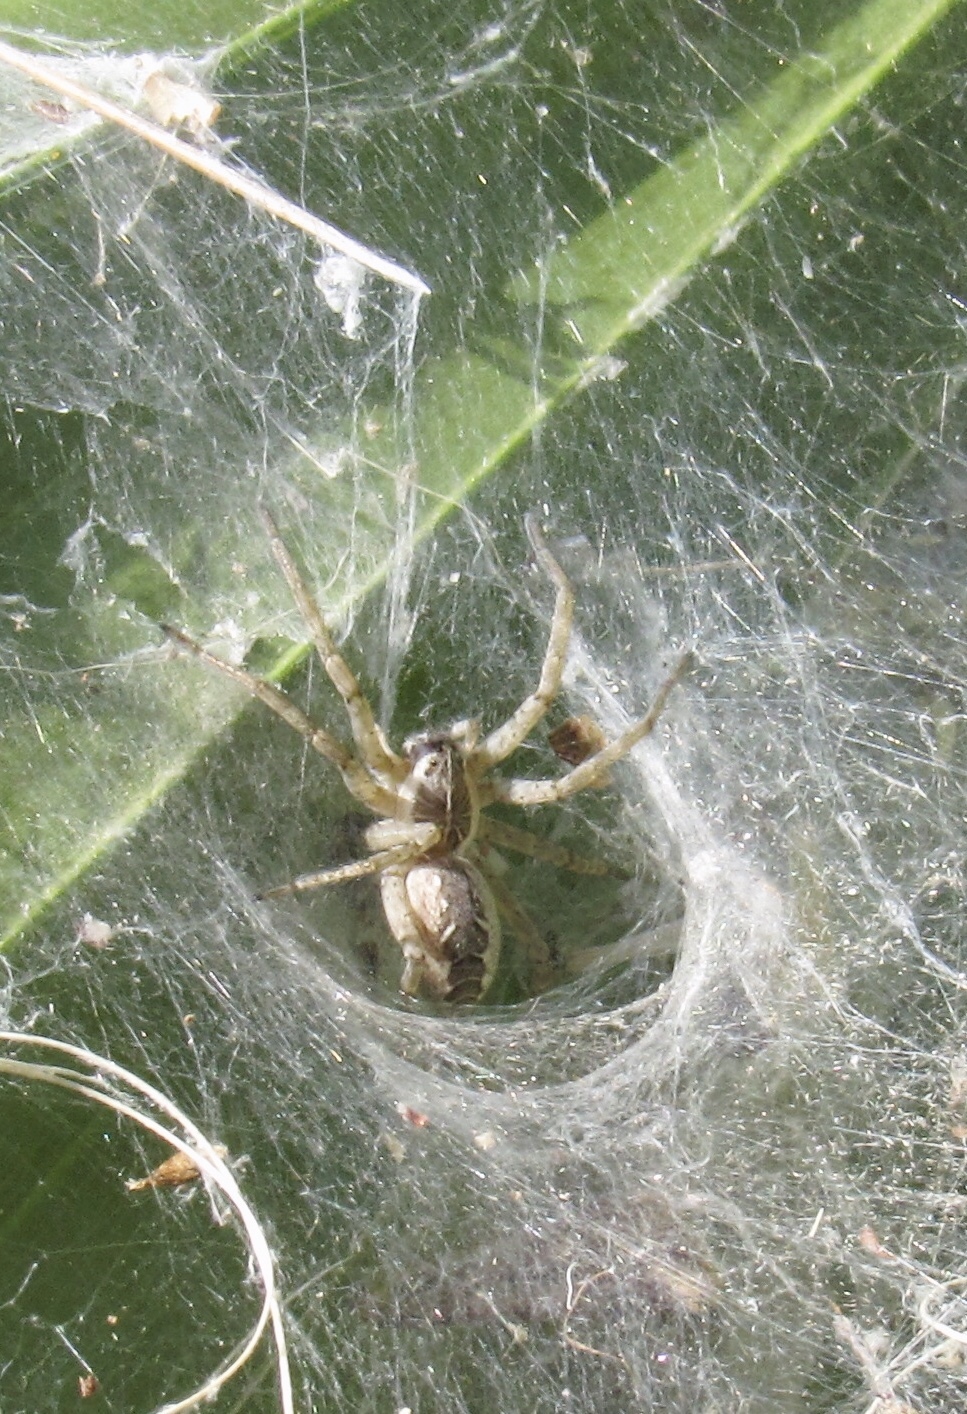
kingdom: Animalia
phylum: Arthropoda
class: Arachnida
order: Araneae
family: Lycosidae
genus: Sosippus
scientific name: Sosippus californicus
